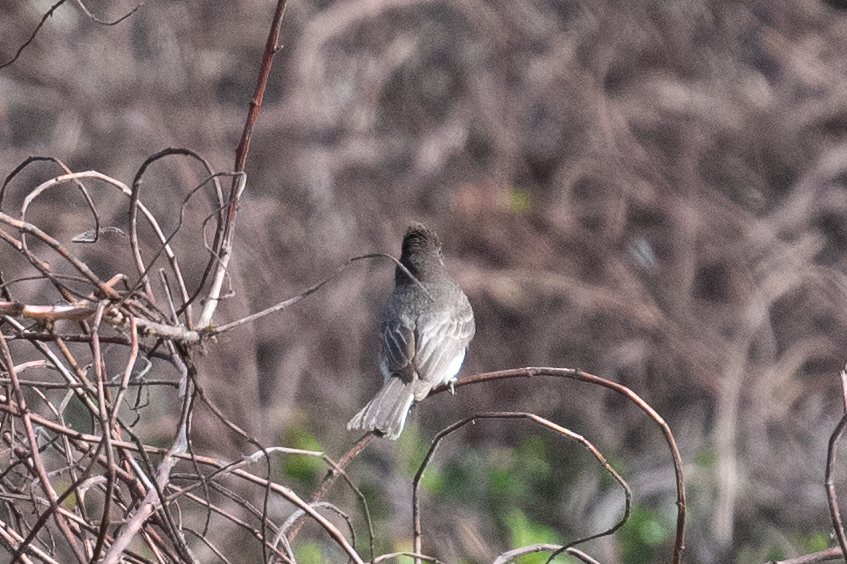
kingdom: Animalia
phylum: Chordata
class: Aves
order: Passeriformes
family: Tyrannidae
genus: Sayornis
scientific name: Sayornis nigricans
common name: Black phoebe
